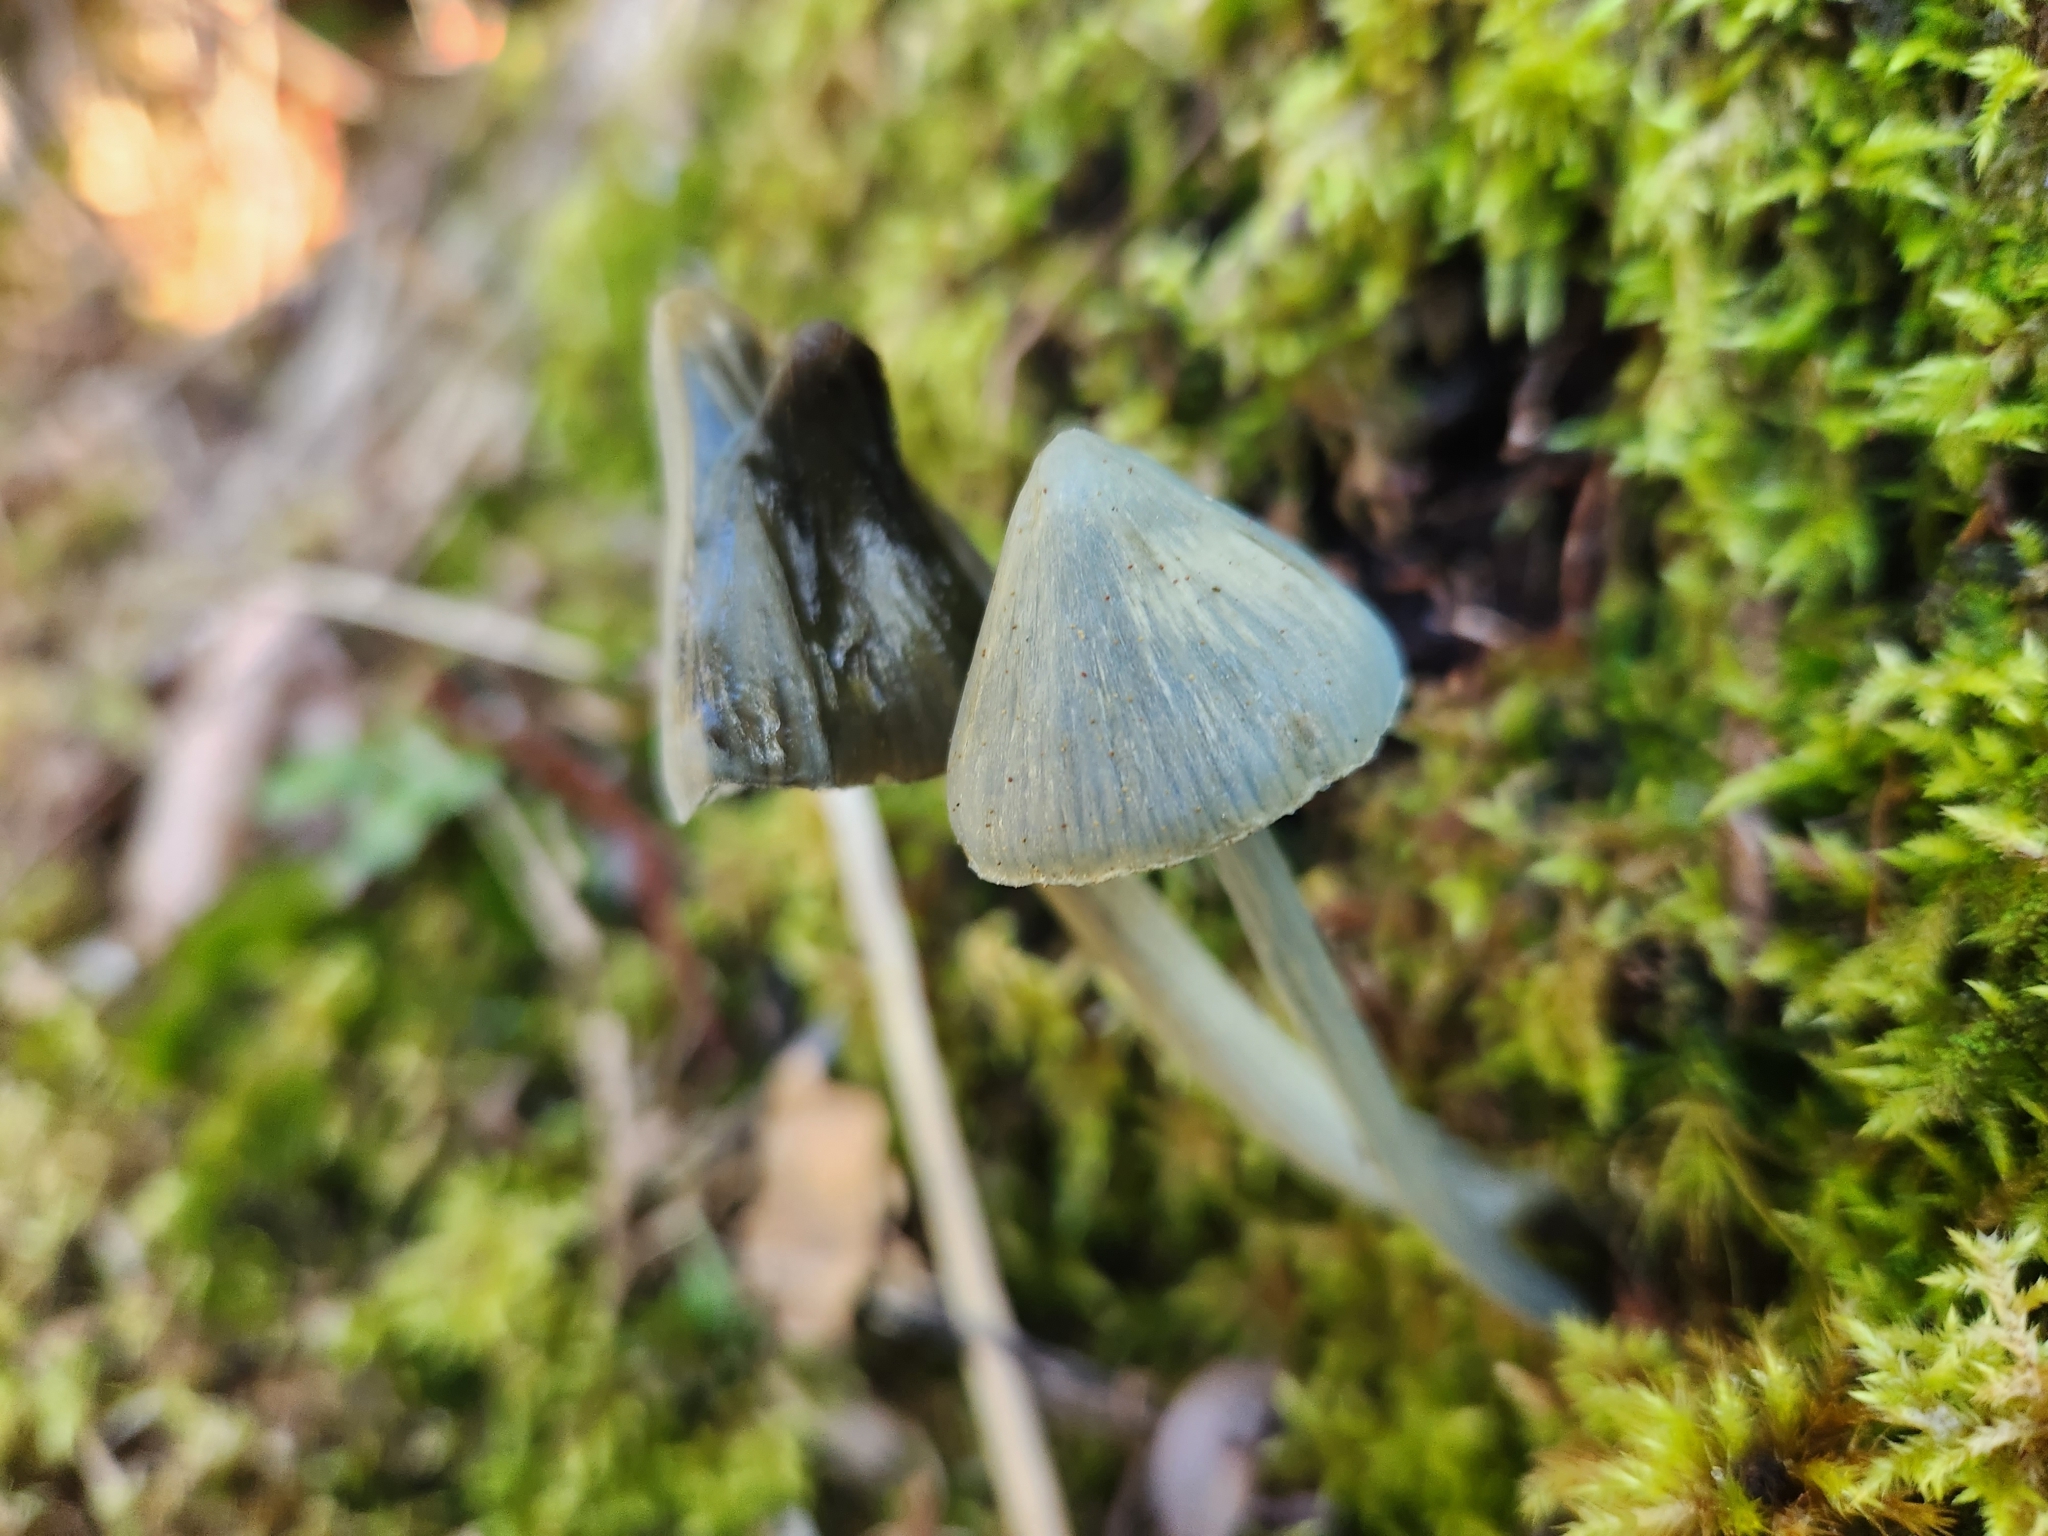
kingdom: Fungi
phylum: Basidiomycota
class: Agaricomycetes
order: Agaricales
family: Entolomataceae
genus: Entoloma
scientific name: Entoloma hochstetteri
